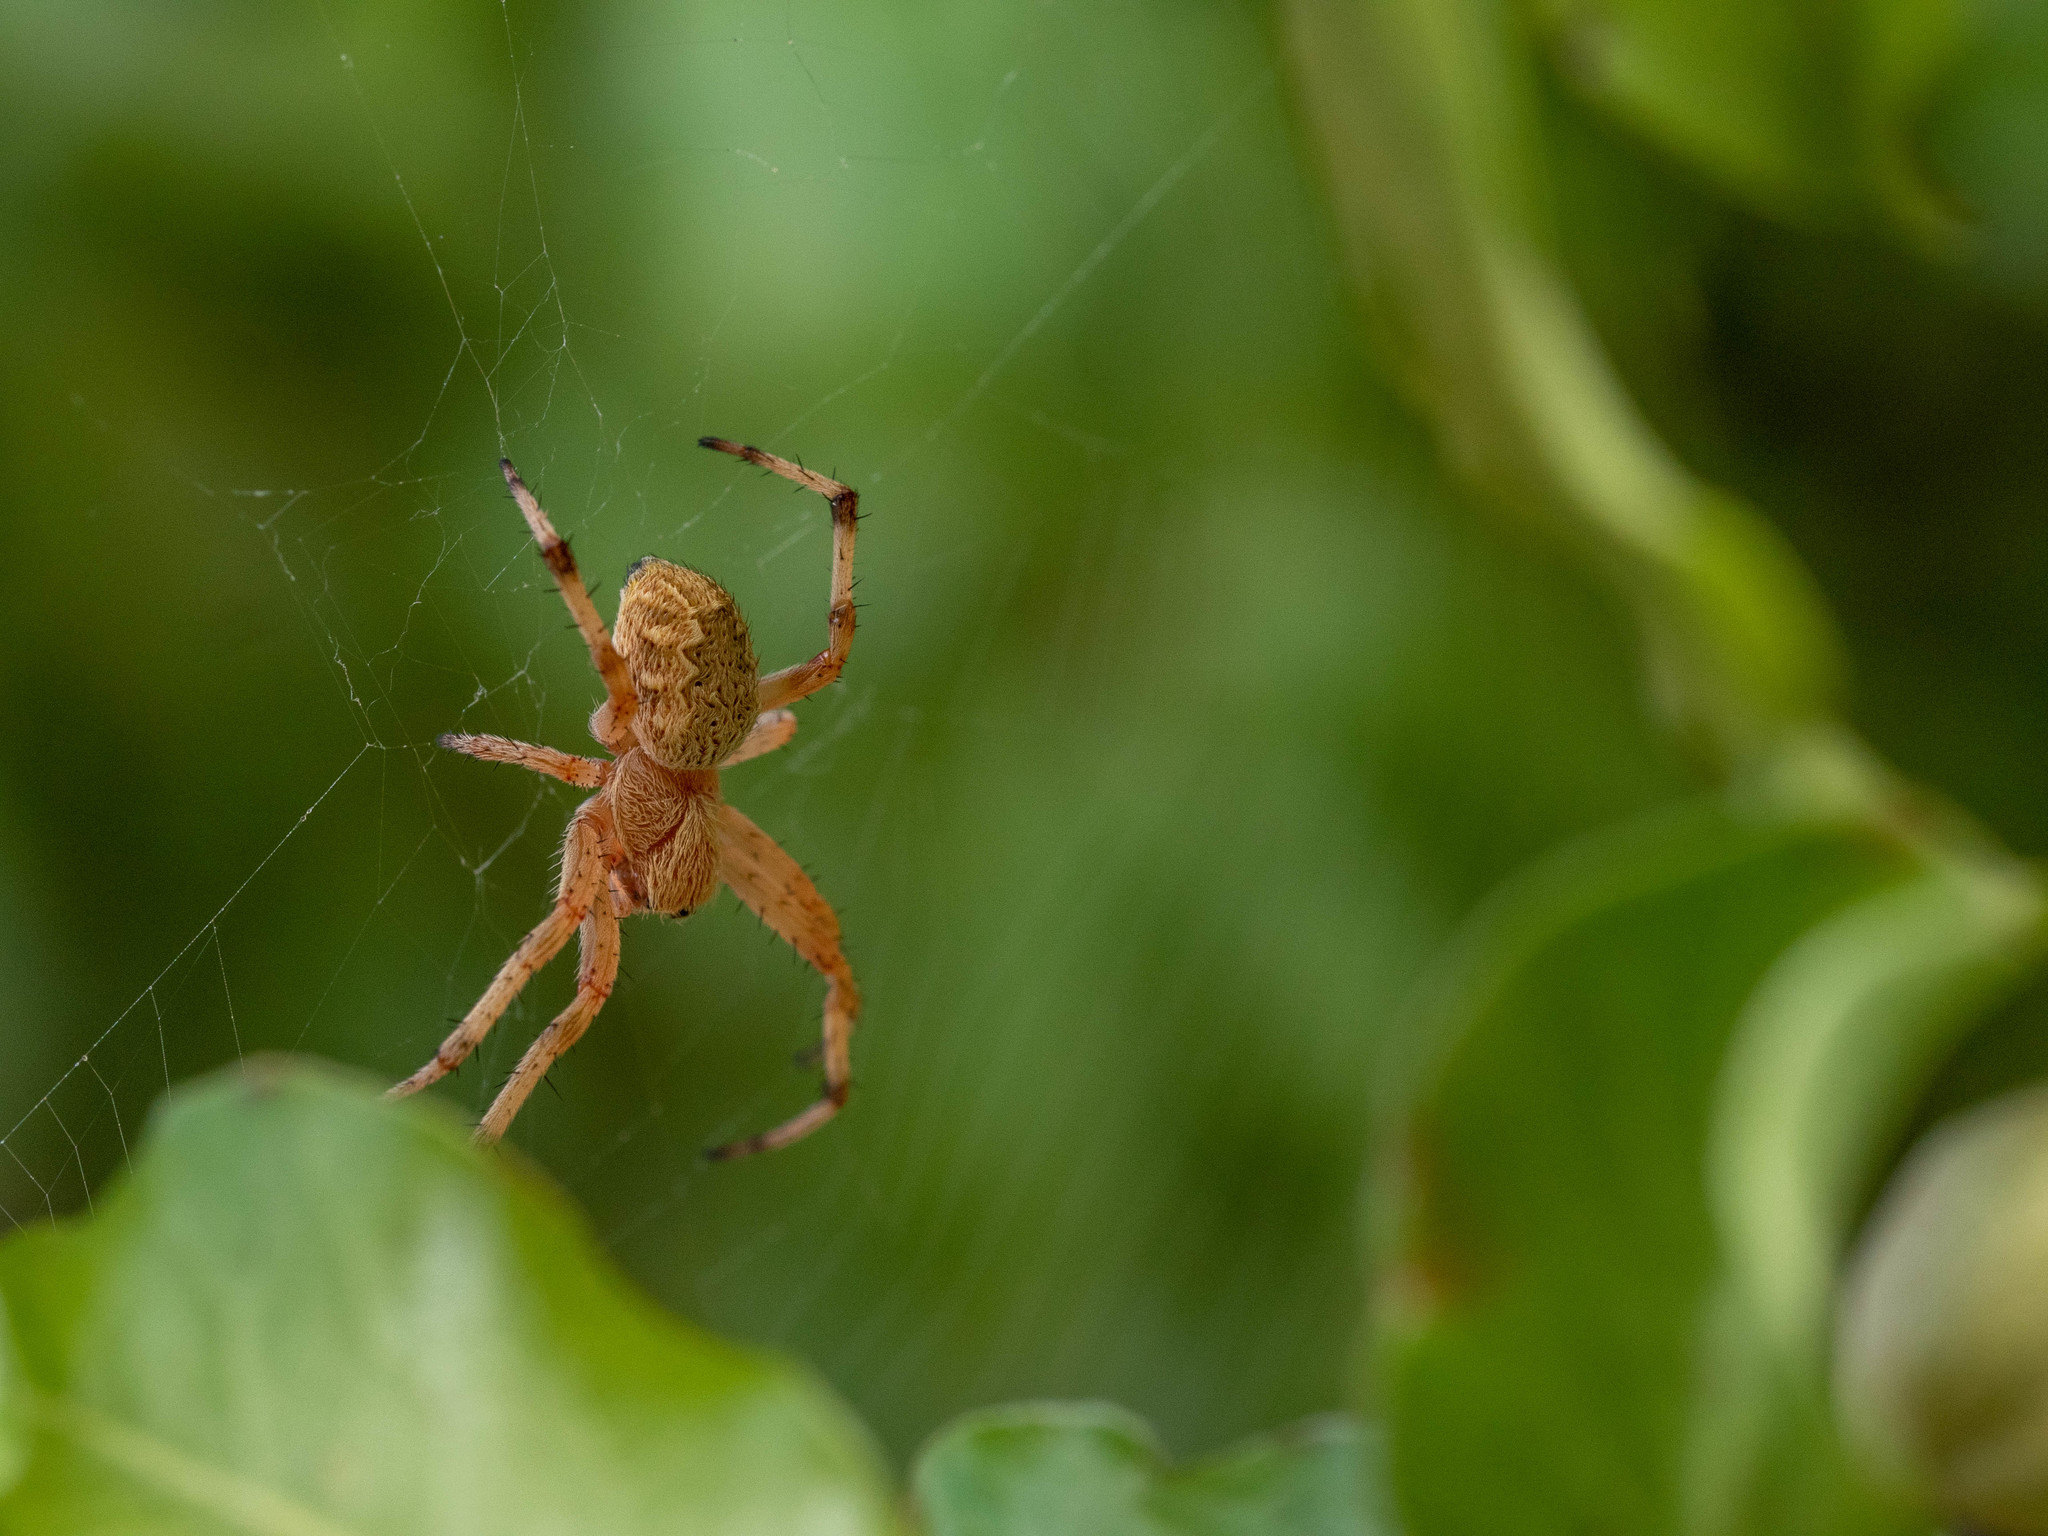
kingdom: Animalia
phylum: Arthropoda
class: Arachnida
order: Araneae
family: Araneidae
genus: Salsa
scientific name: Salsa fuliginata
